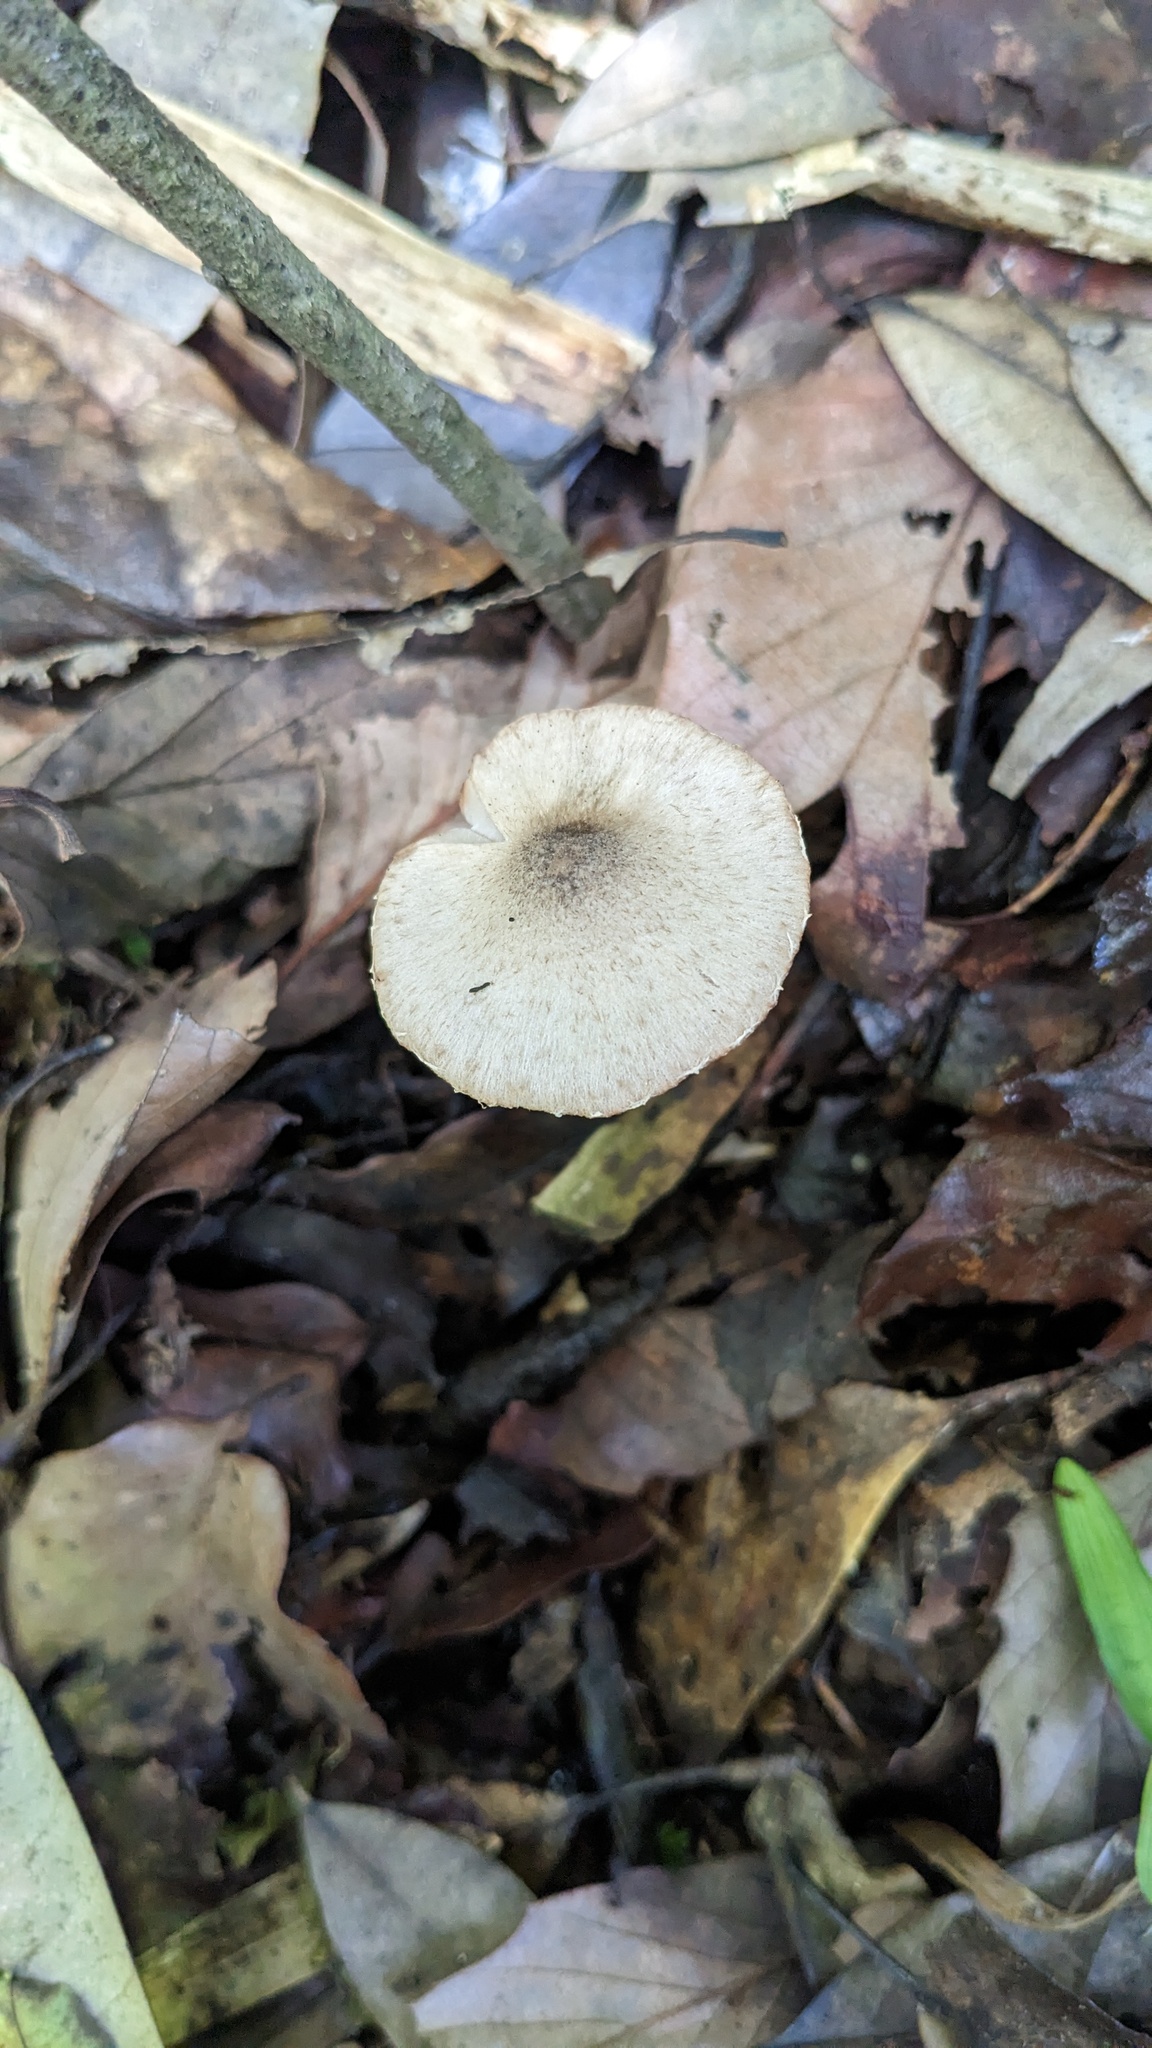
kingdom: Fungi
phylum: Basidiomycota
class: Agaricomycetes
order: Agaricales
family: Psathyrellaceae
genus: Coprinopsis
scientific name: Coprinopsis cineraria
